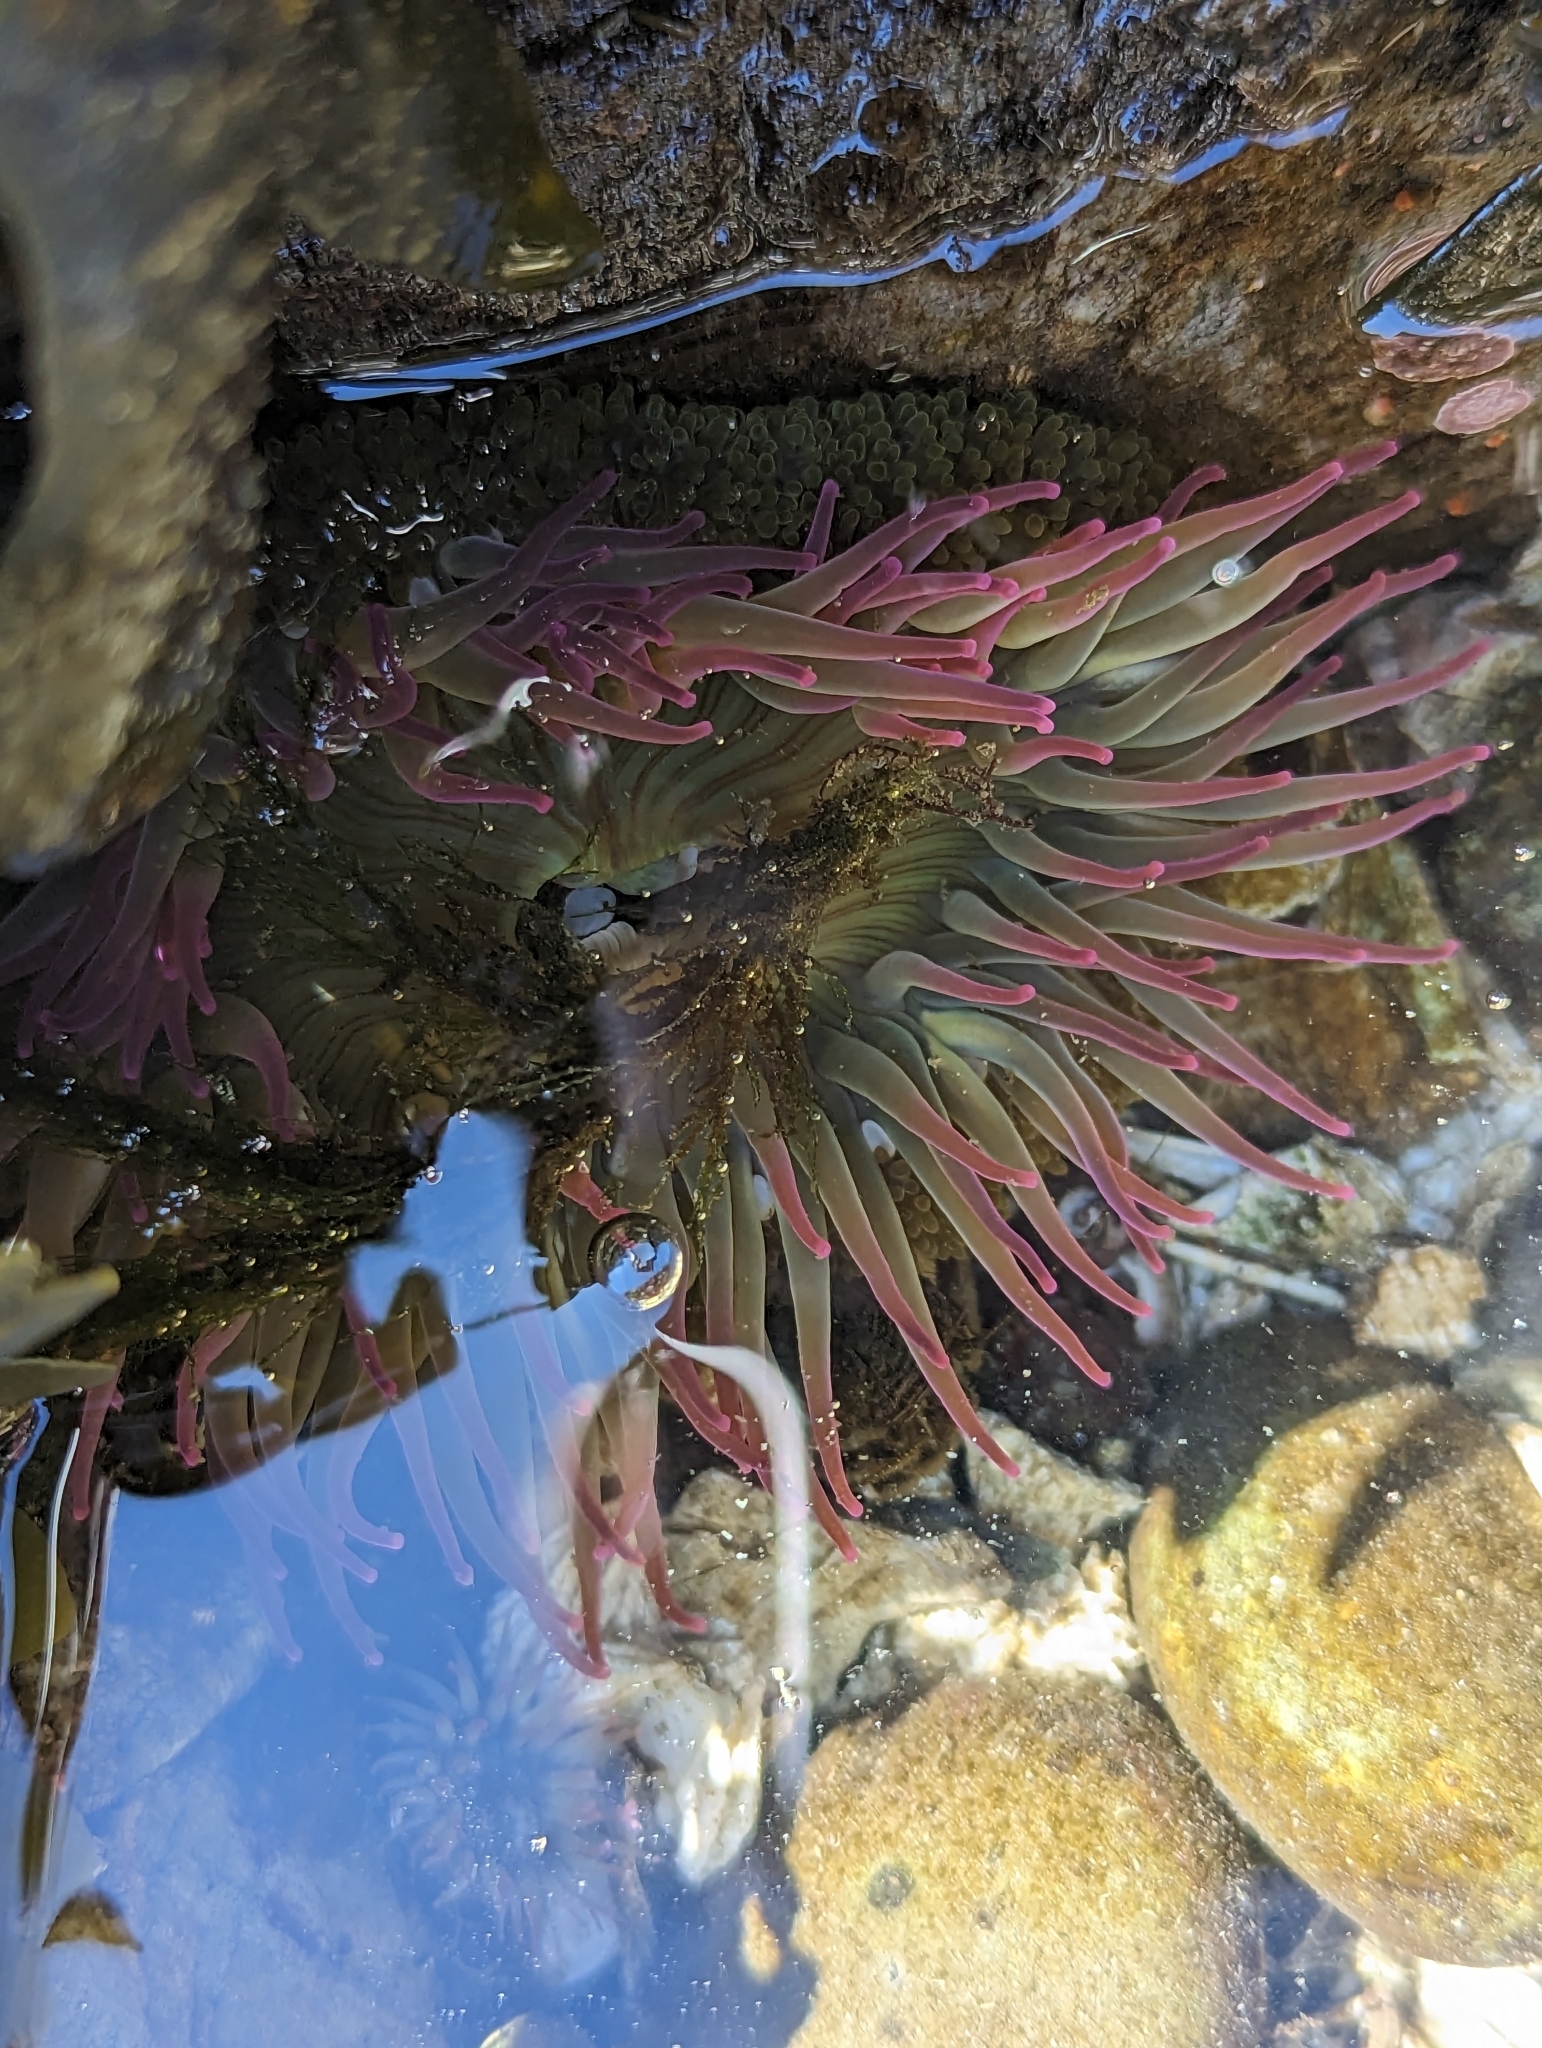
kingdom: Animalia
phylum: Cnidaria
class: Anthozoa
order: Actiniaria
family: Actiniidae
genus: Anthopleura
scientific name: Anthopleura elegantissima
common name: Clonal anemone
